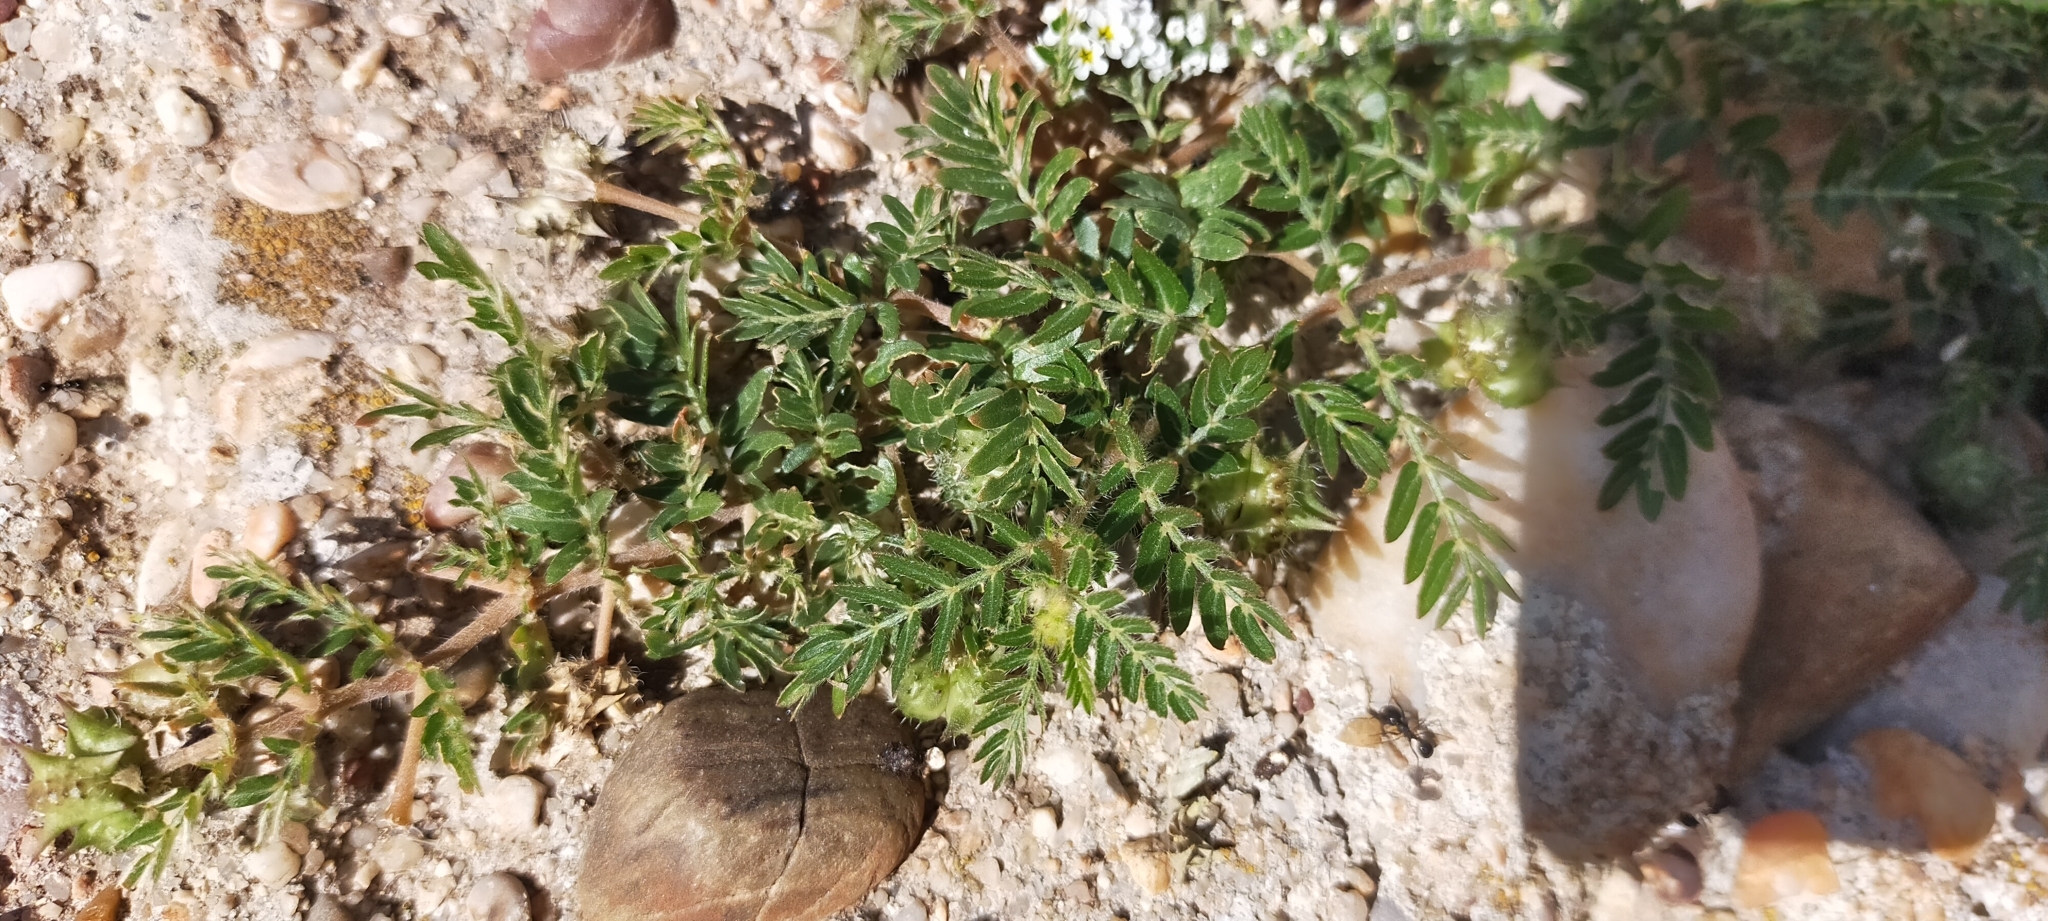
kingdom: Plantae
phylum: Tracheophyta
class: Magnoliopsida
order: Zygophyllales
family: Zygophyllaceae
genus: Tribulus
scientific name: Tribulus terrestris
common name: Puncturevine
